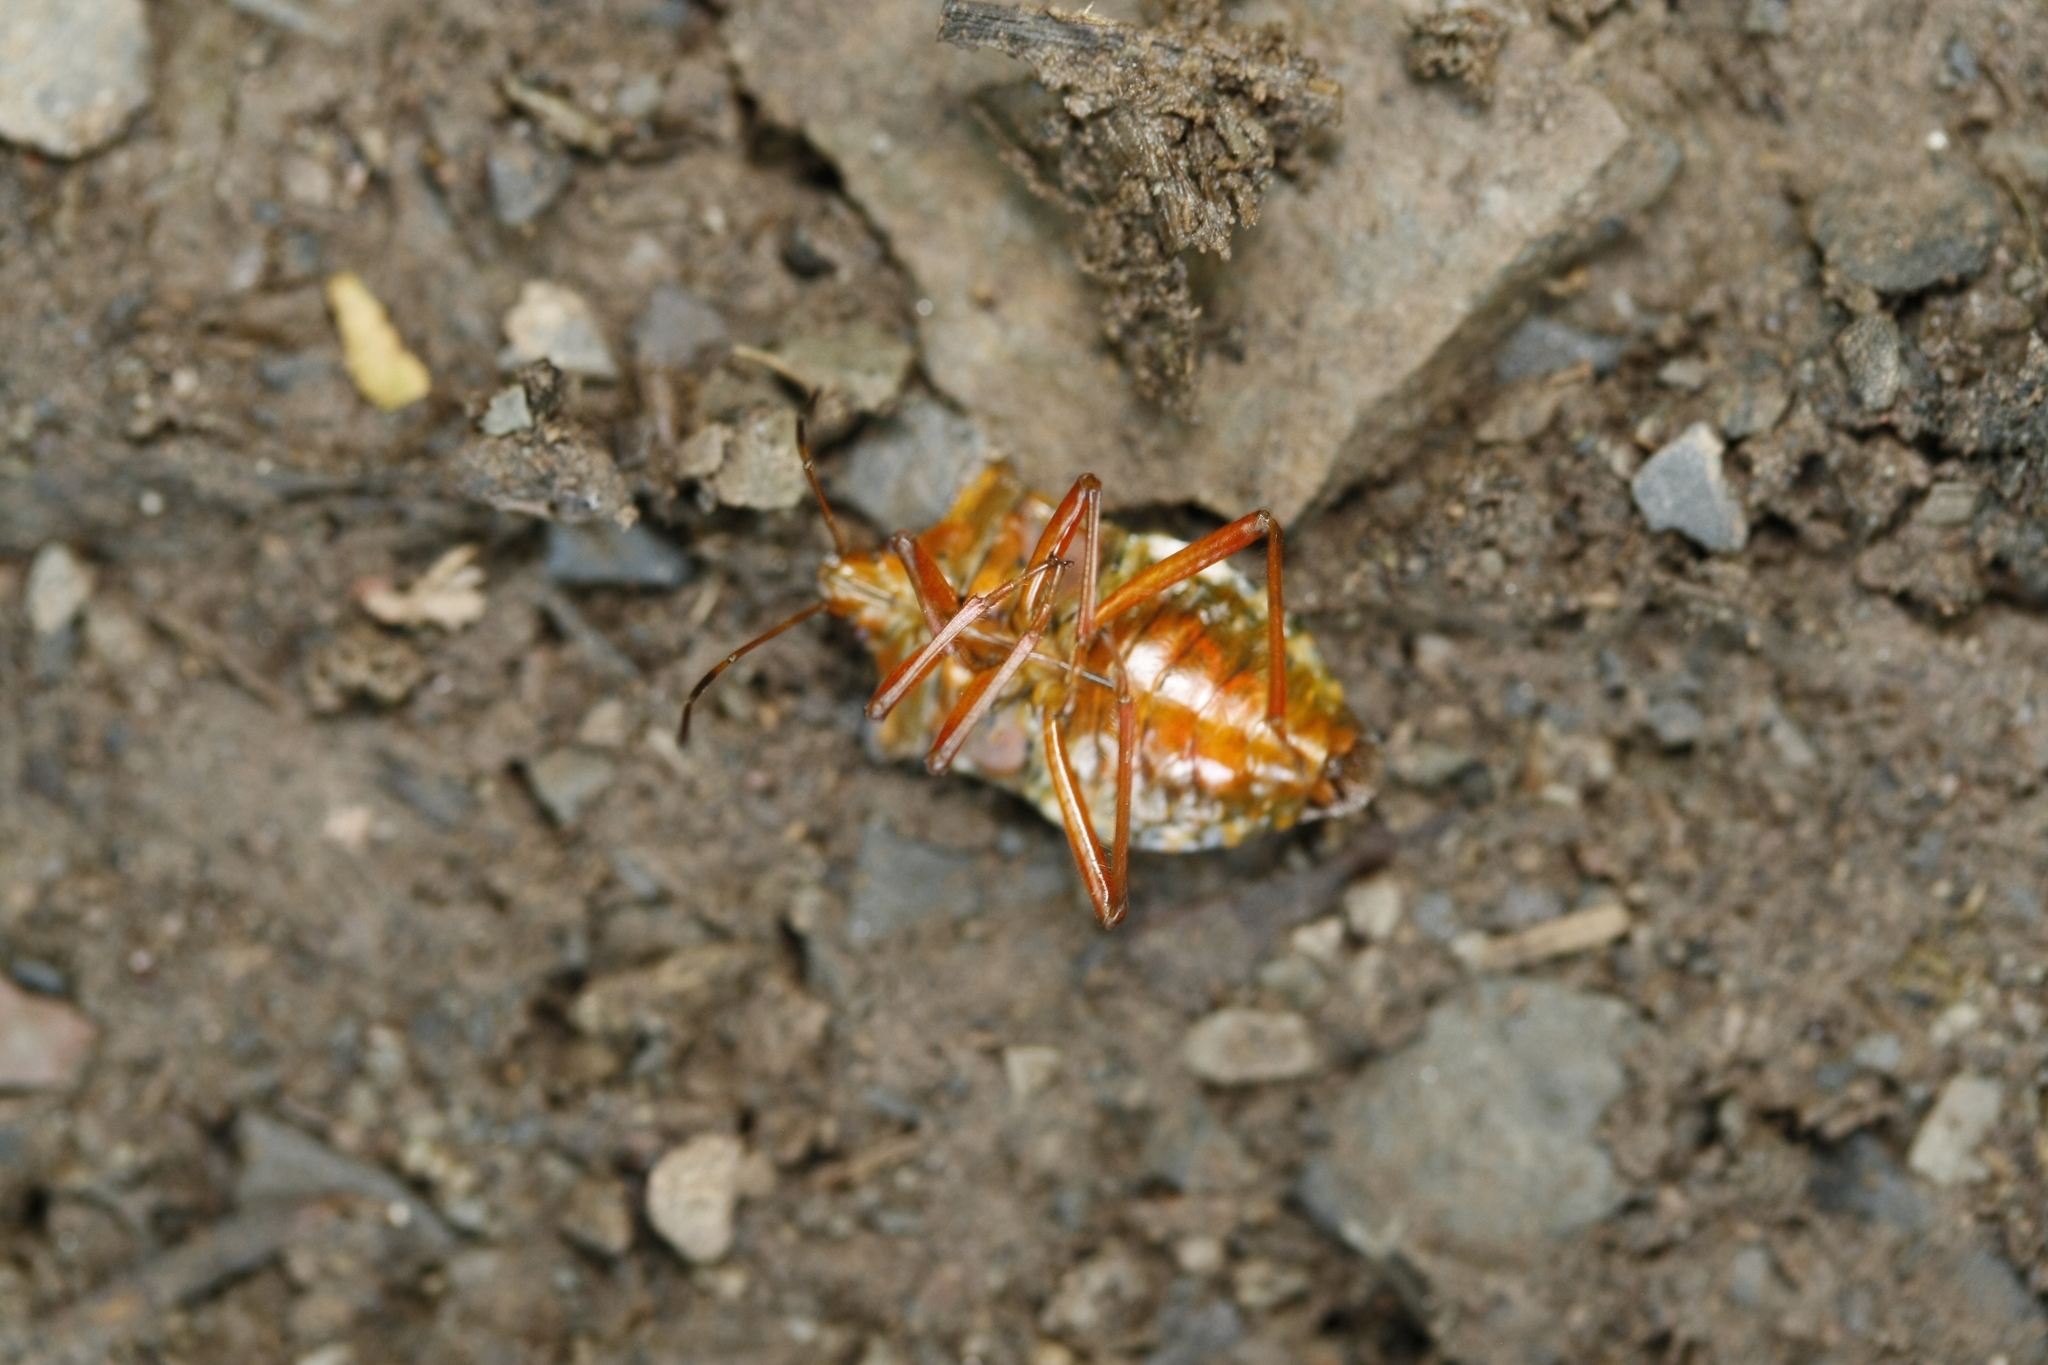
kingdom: Animalia
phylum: Arthropoda
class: Insecta
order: Hemiptera
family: Pentatomidae
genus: Pentatoma
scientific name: Pentatoma rufipes
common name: Forest bug
